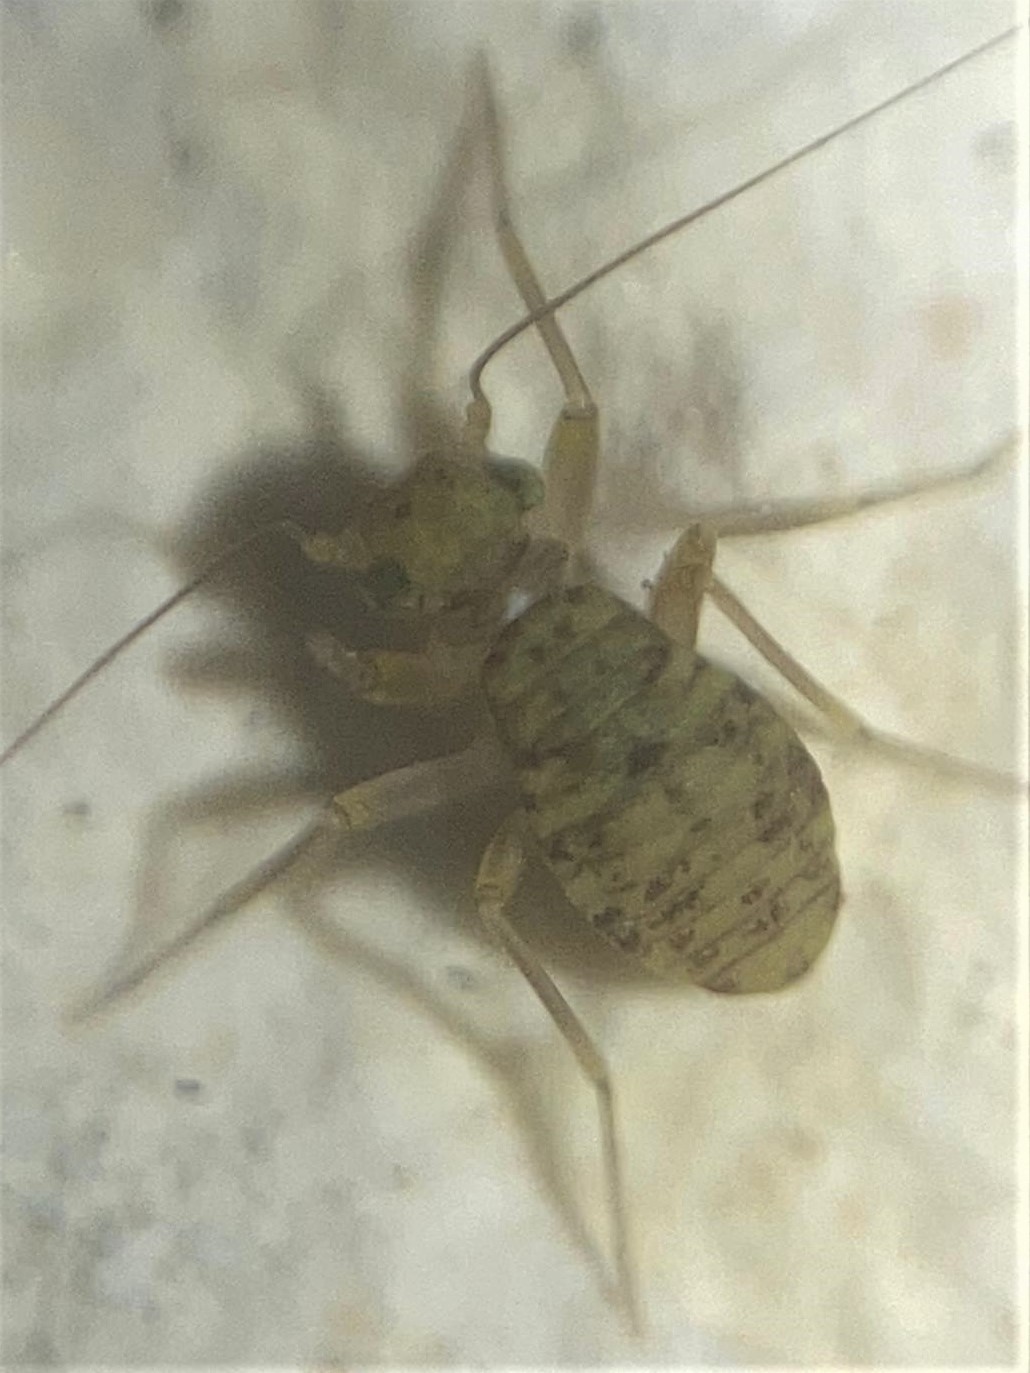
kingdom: Animalia
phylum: Arthropoda
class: Insecta
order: Psocodea
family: Prionoglarididae
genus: Prionoglaris
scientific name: Prionoglaris stygia
